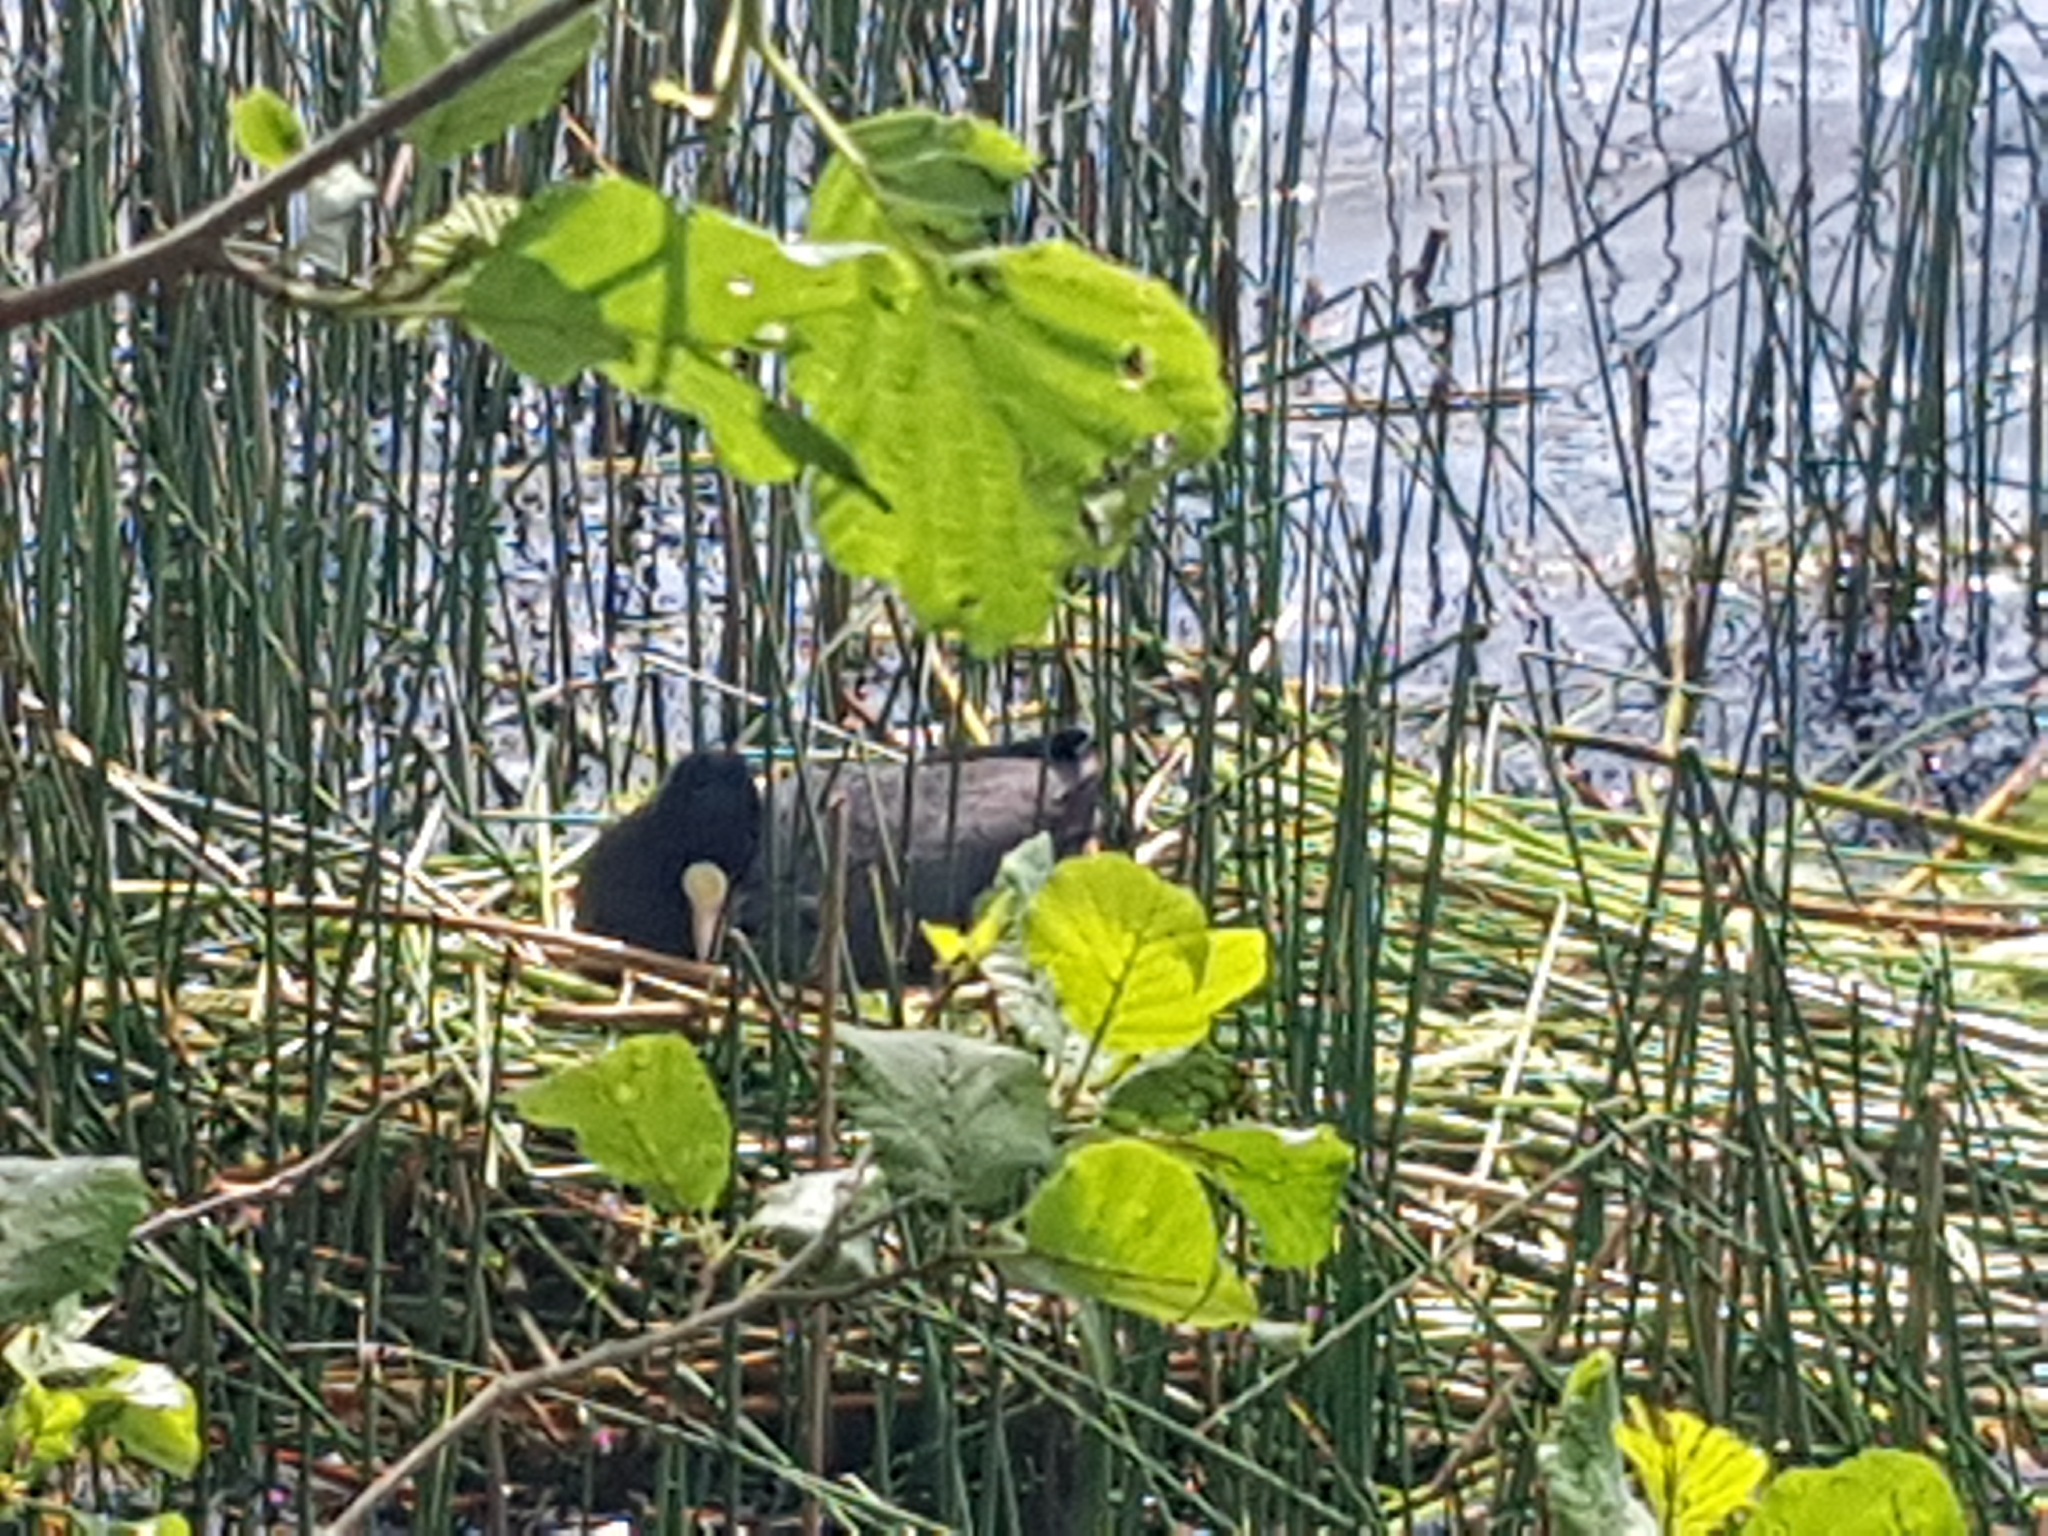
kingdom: Animalia
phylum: Chordata
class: Aves
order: Gruiformes
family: Rallidae
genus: Fulica
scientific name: Fulica atra
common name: Eurasian coot
